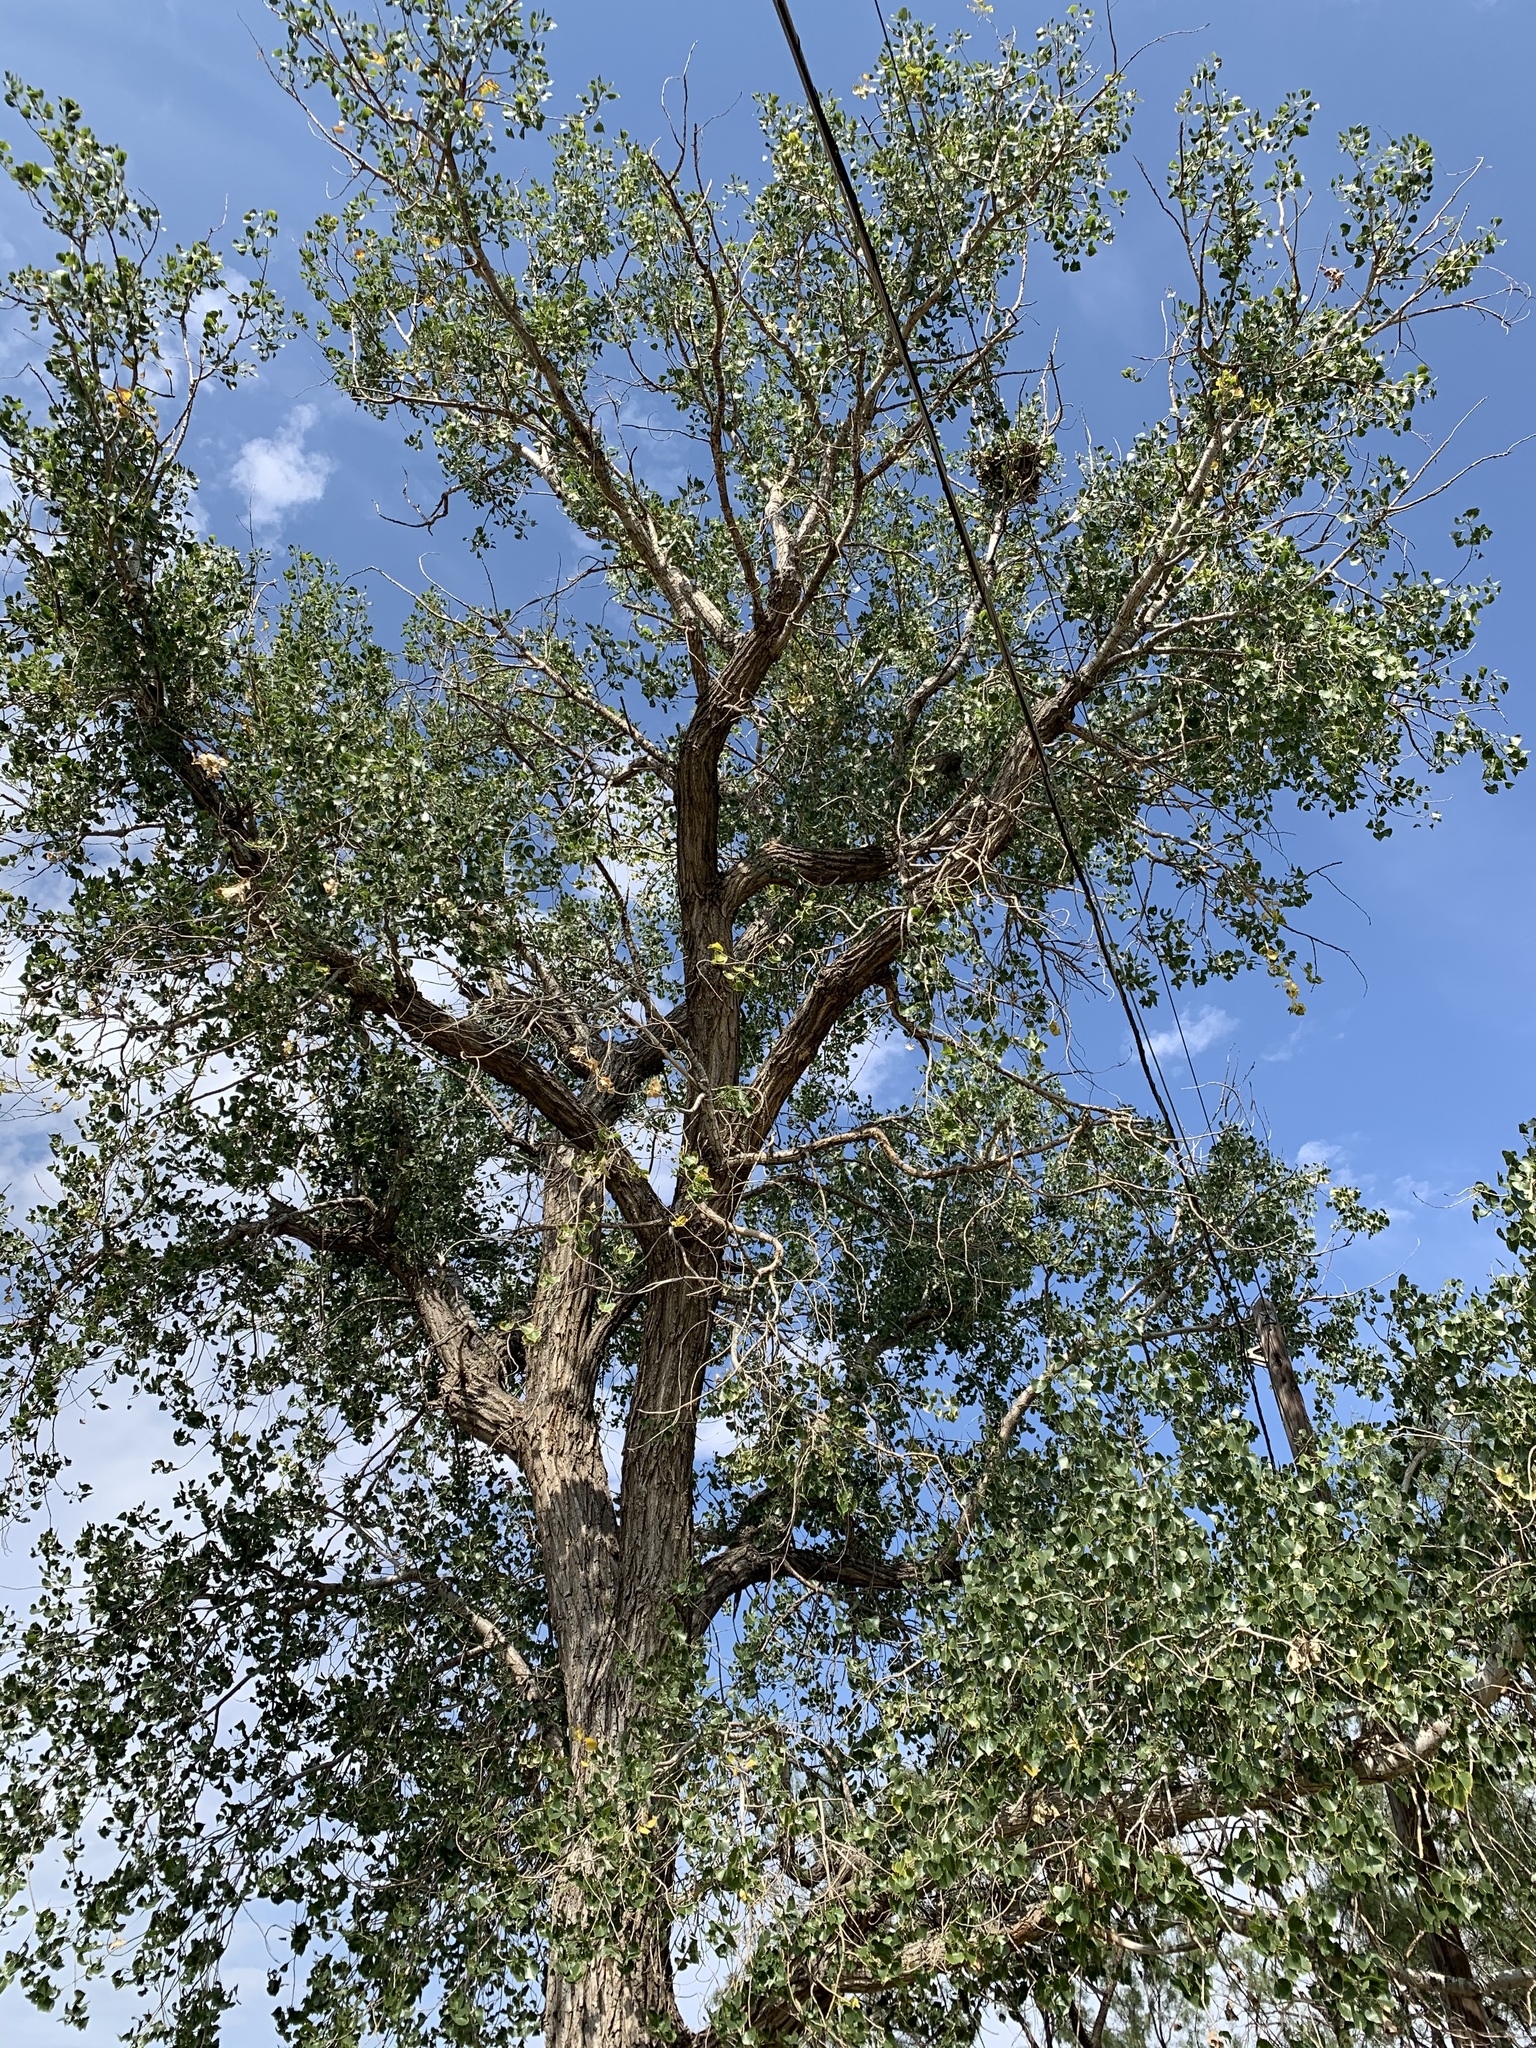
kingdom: Plantae
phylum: Tracheophyta
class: Magnoliopsida
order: Malpighiales
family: Salicaceae
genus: Populus
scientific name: Populus deltoides
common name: Eastern cottonwood
